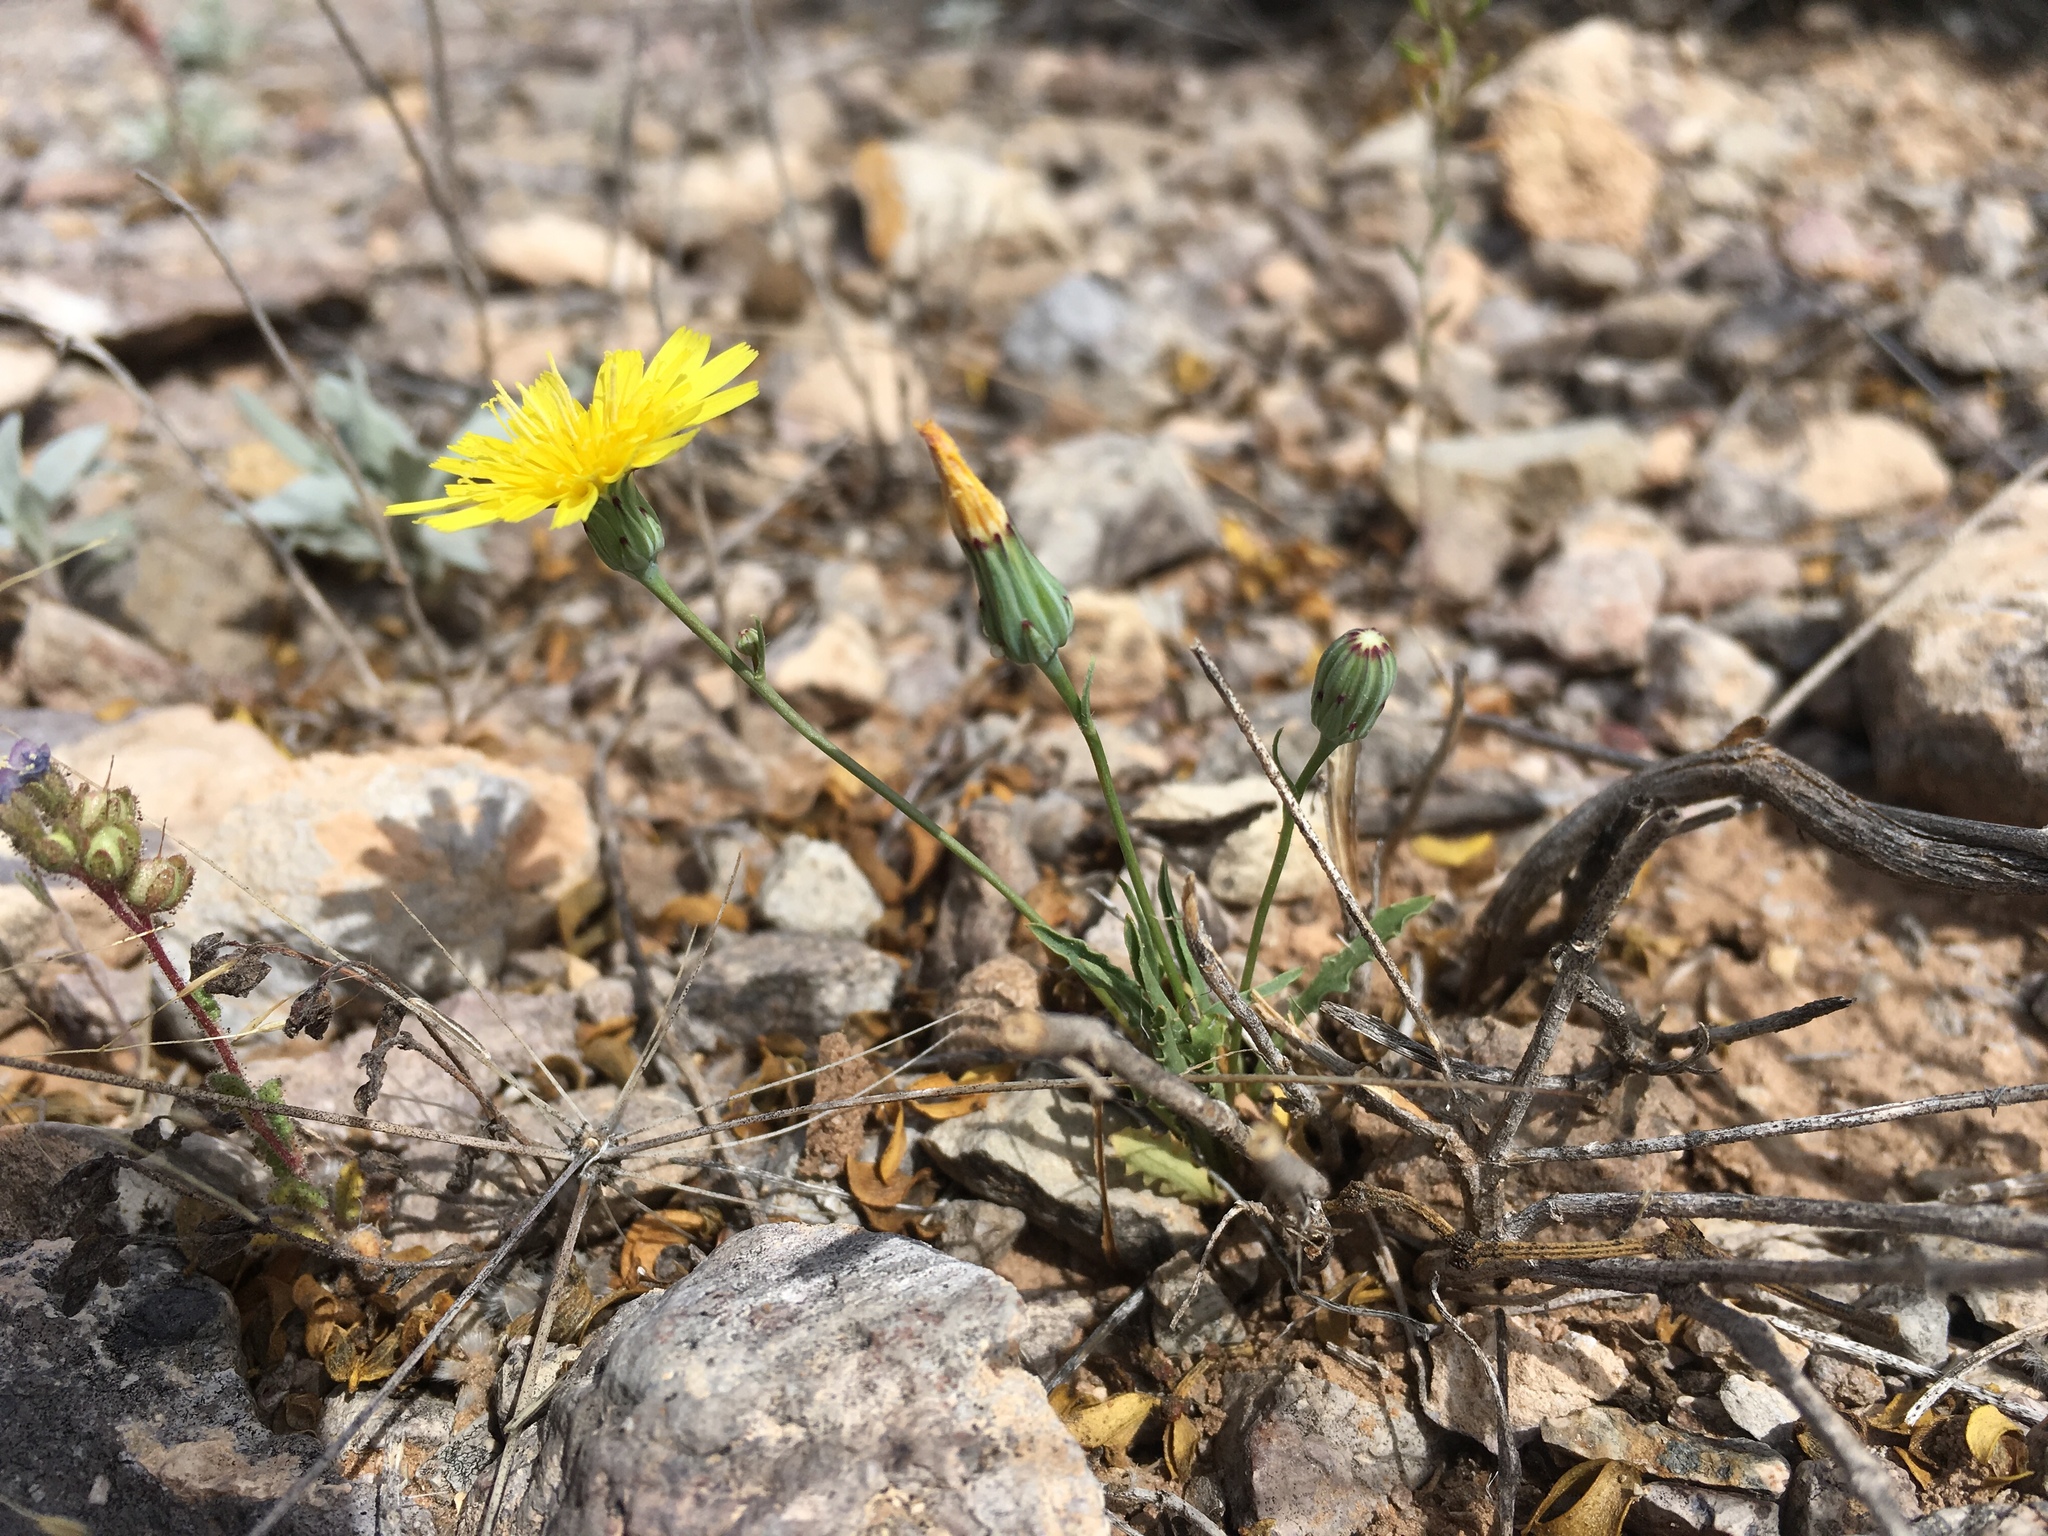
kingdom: Plantae
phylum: Tracheophyta
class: Magnoliopsida
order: Asterales
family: Asteraceae
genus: Malacothrix
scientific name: Malacothrix fendleri
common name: Fendler's desert-dandelion
